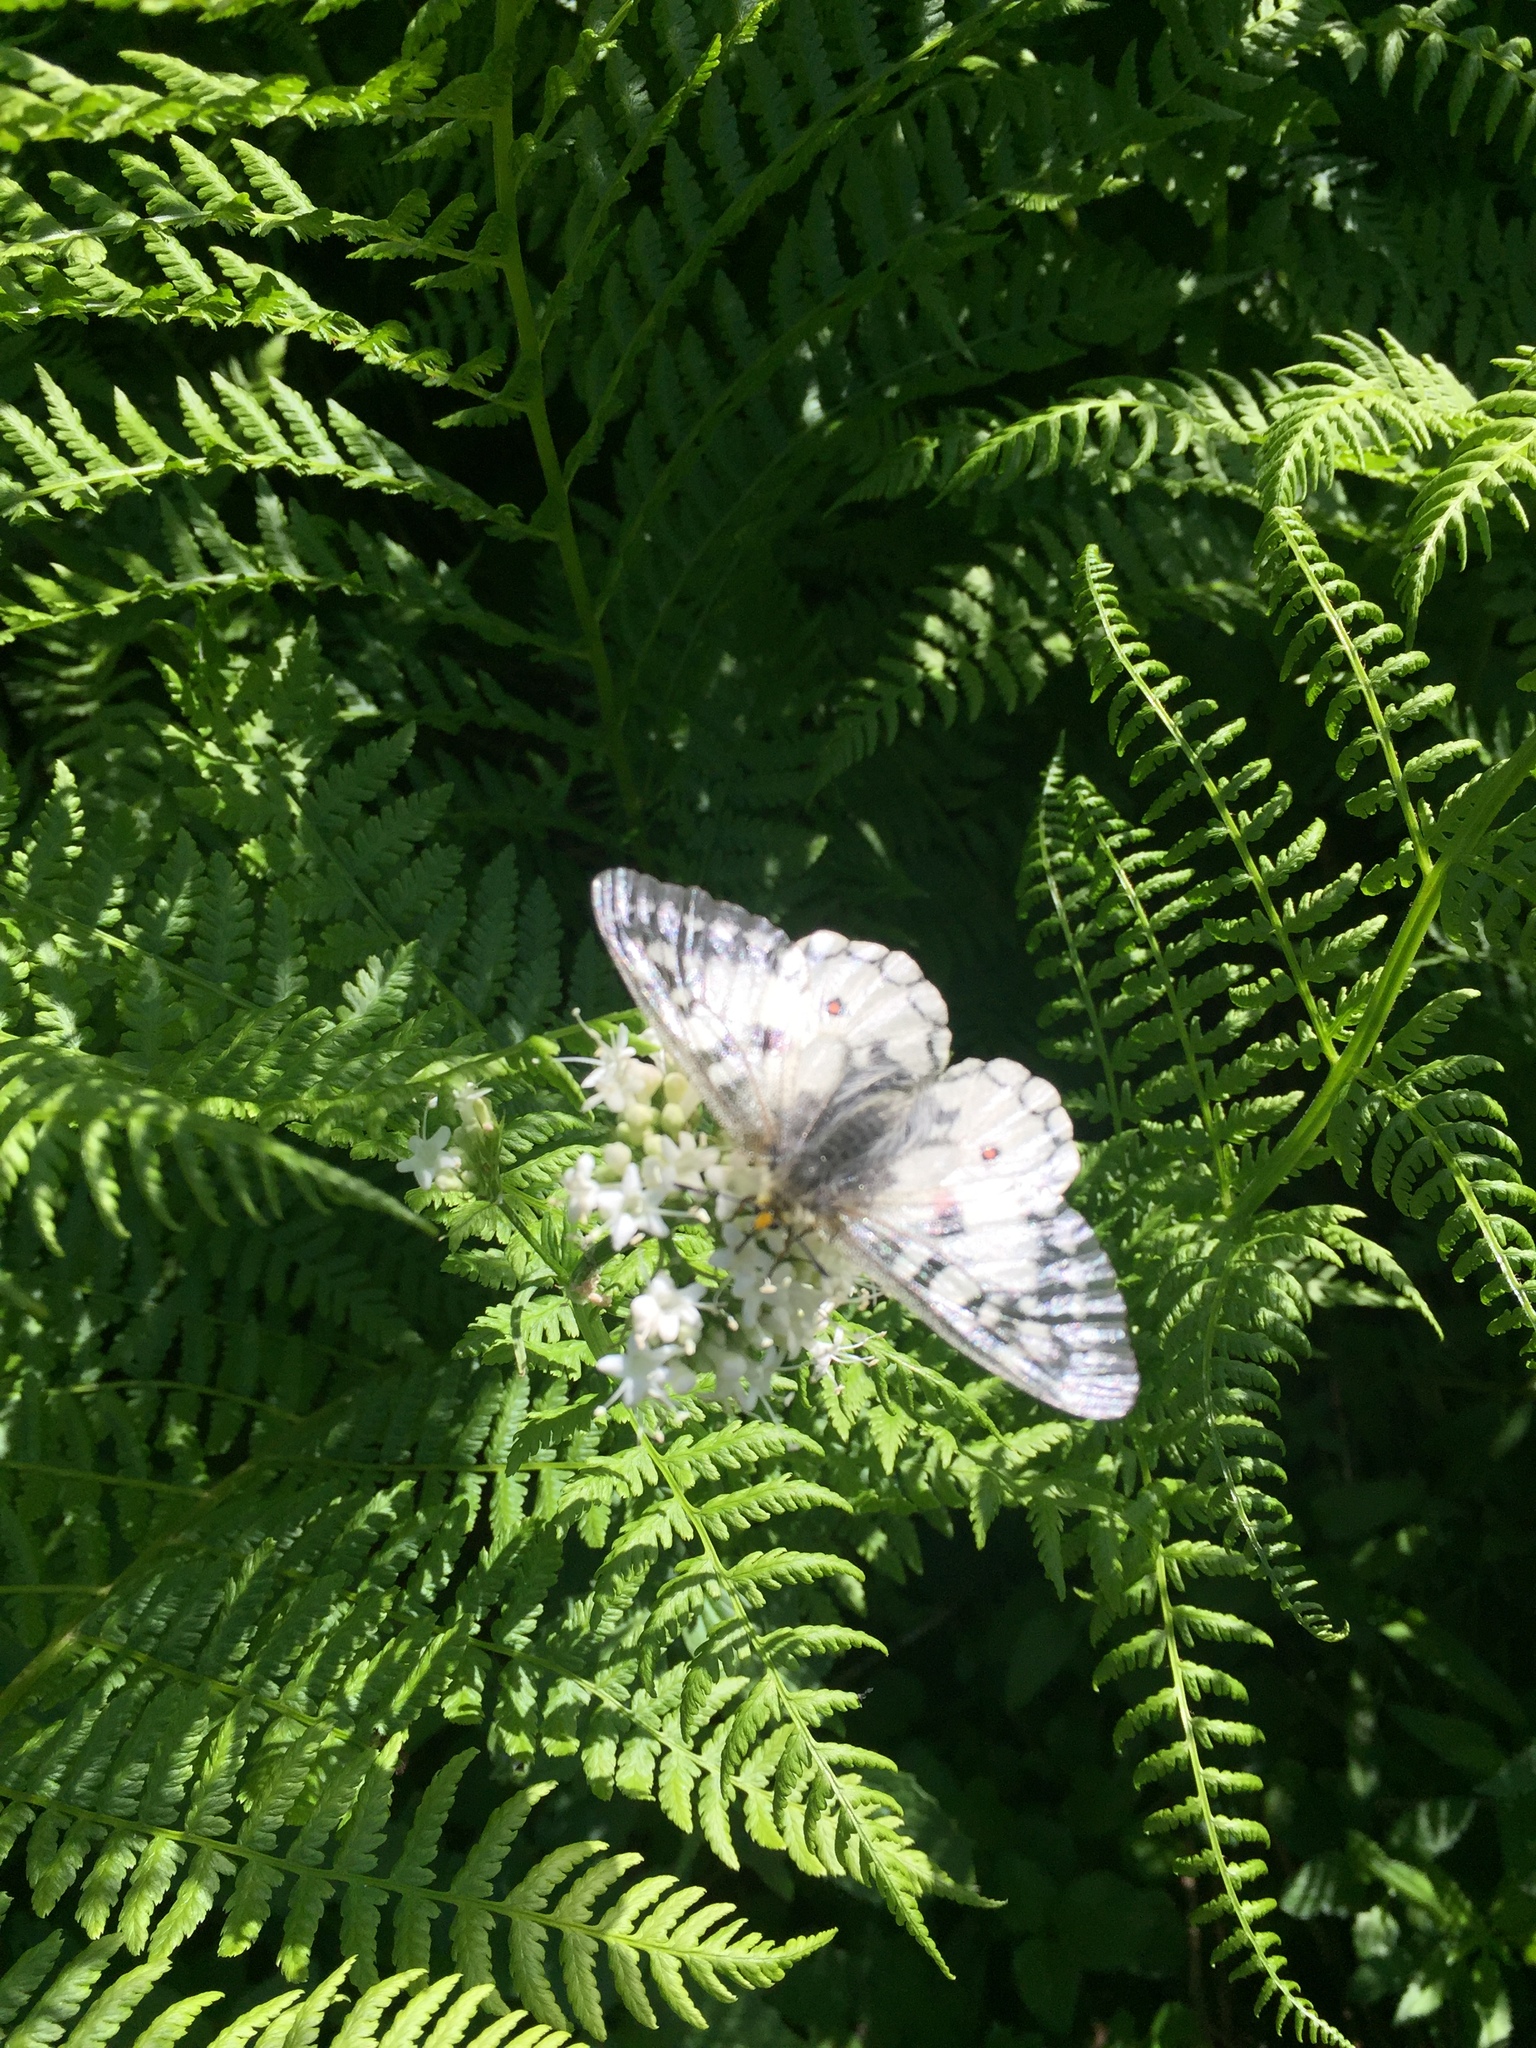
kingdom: Animalia
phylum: Arthropoda
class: Insecta
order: Lepidoptera
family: Papilionidae
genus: Parnassius
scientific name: Parnassius clodius
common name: American apollo
